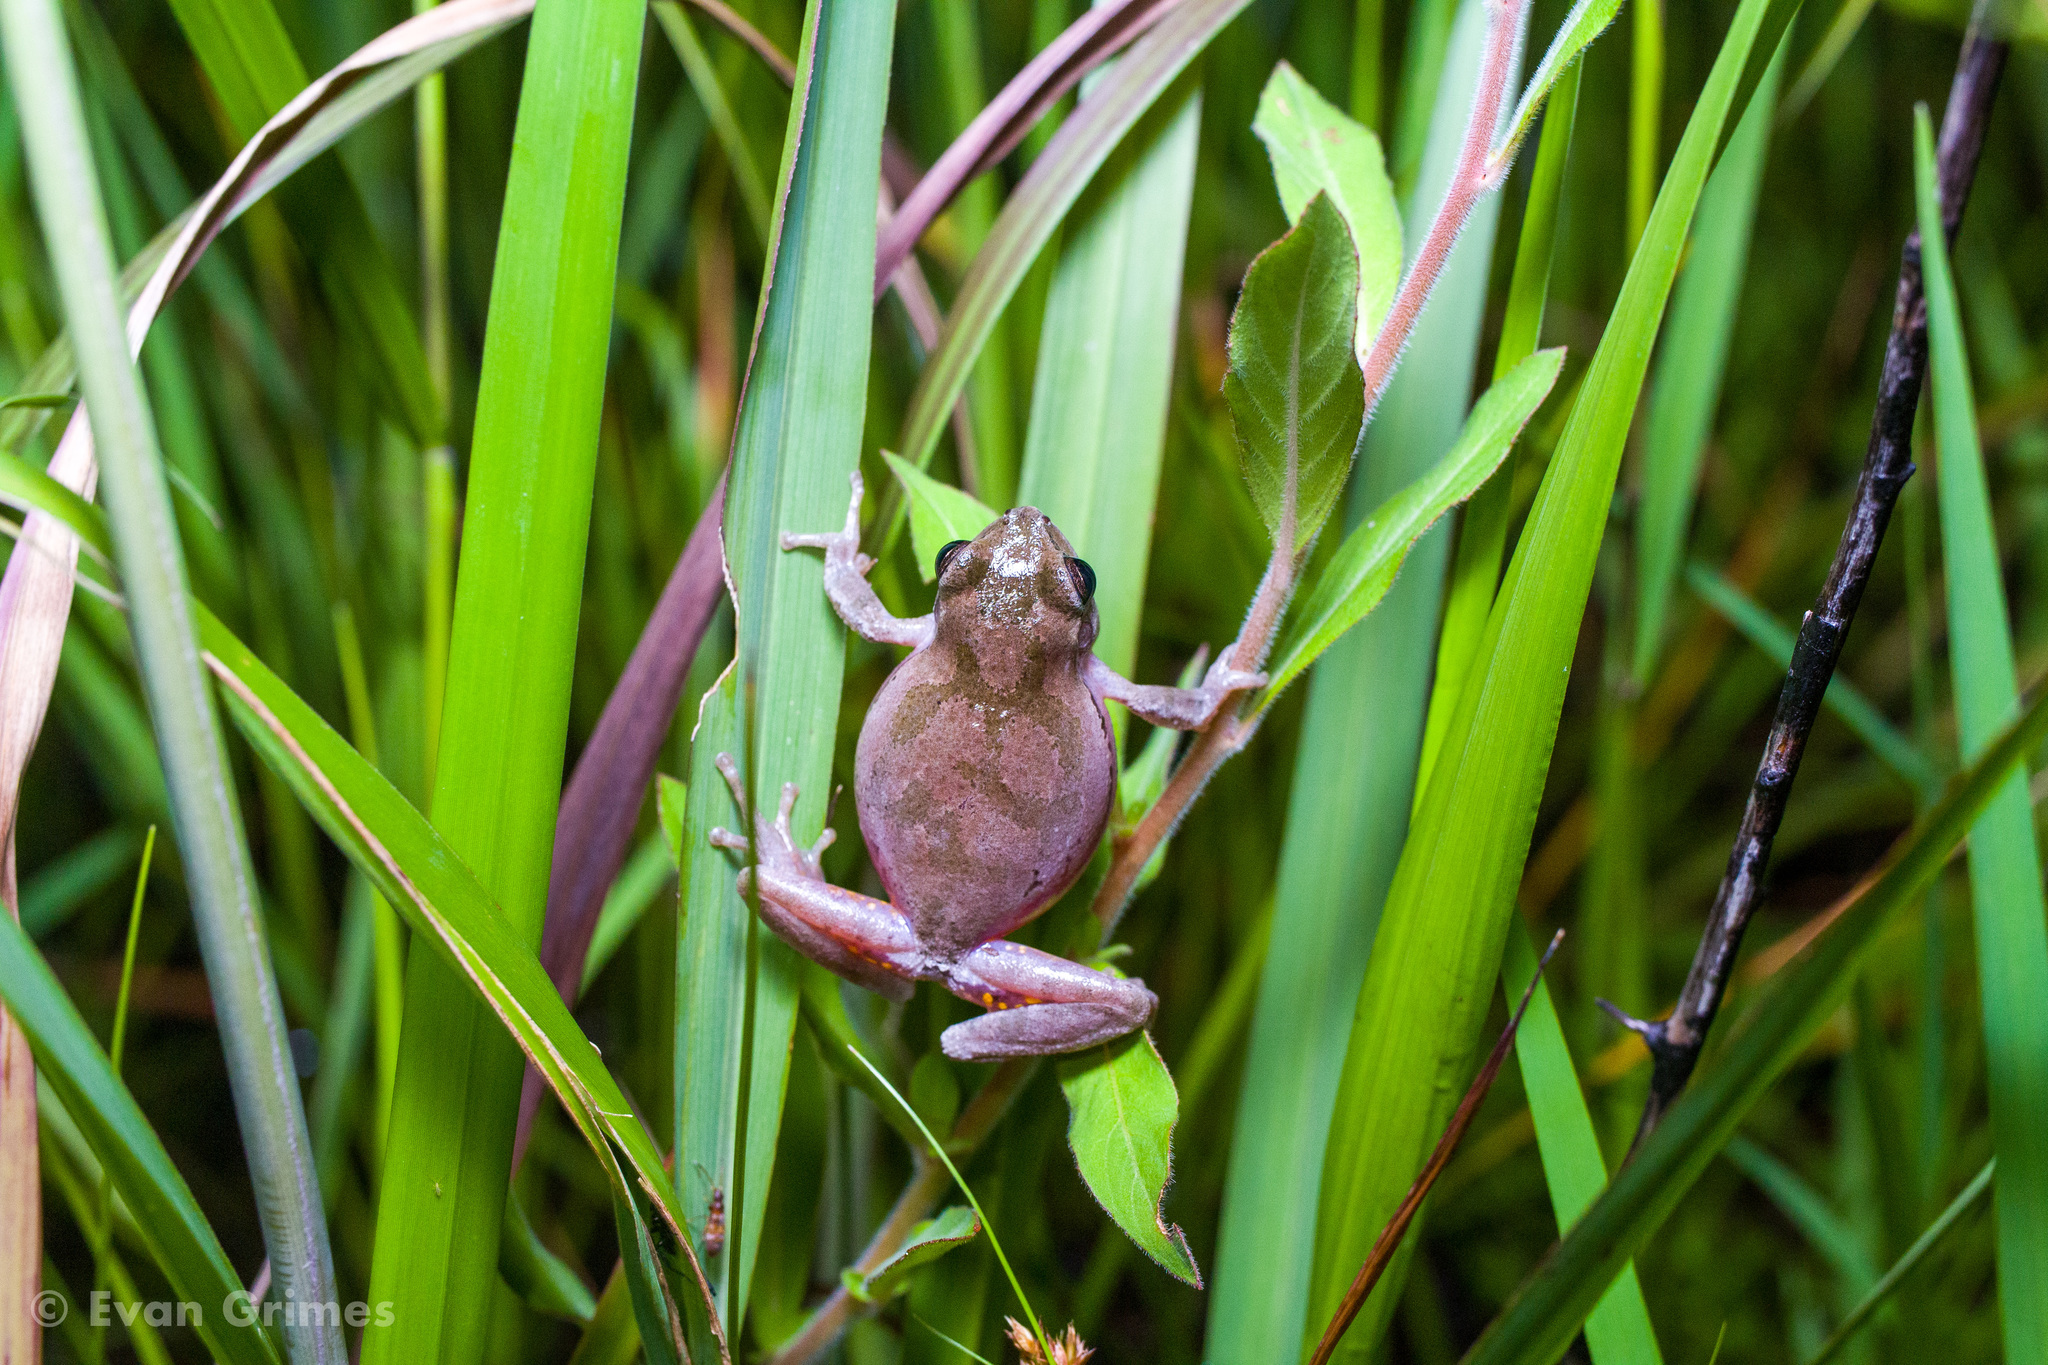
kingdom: Animalia
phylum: Chordata
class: Amphibia
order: Anura
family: Hylidae
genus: Hyla
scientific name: Hyla femoralis
